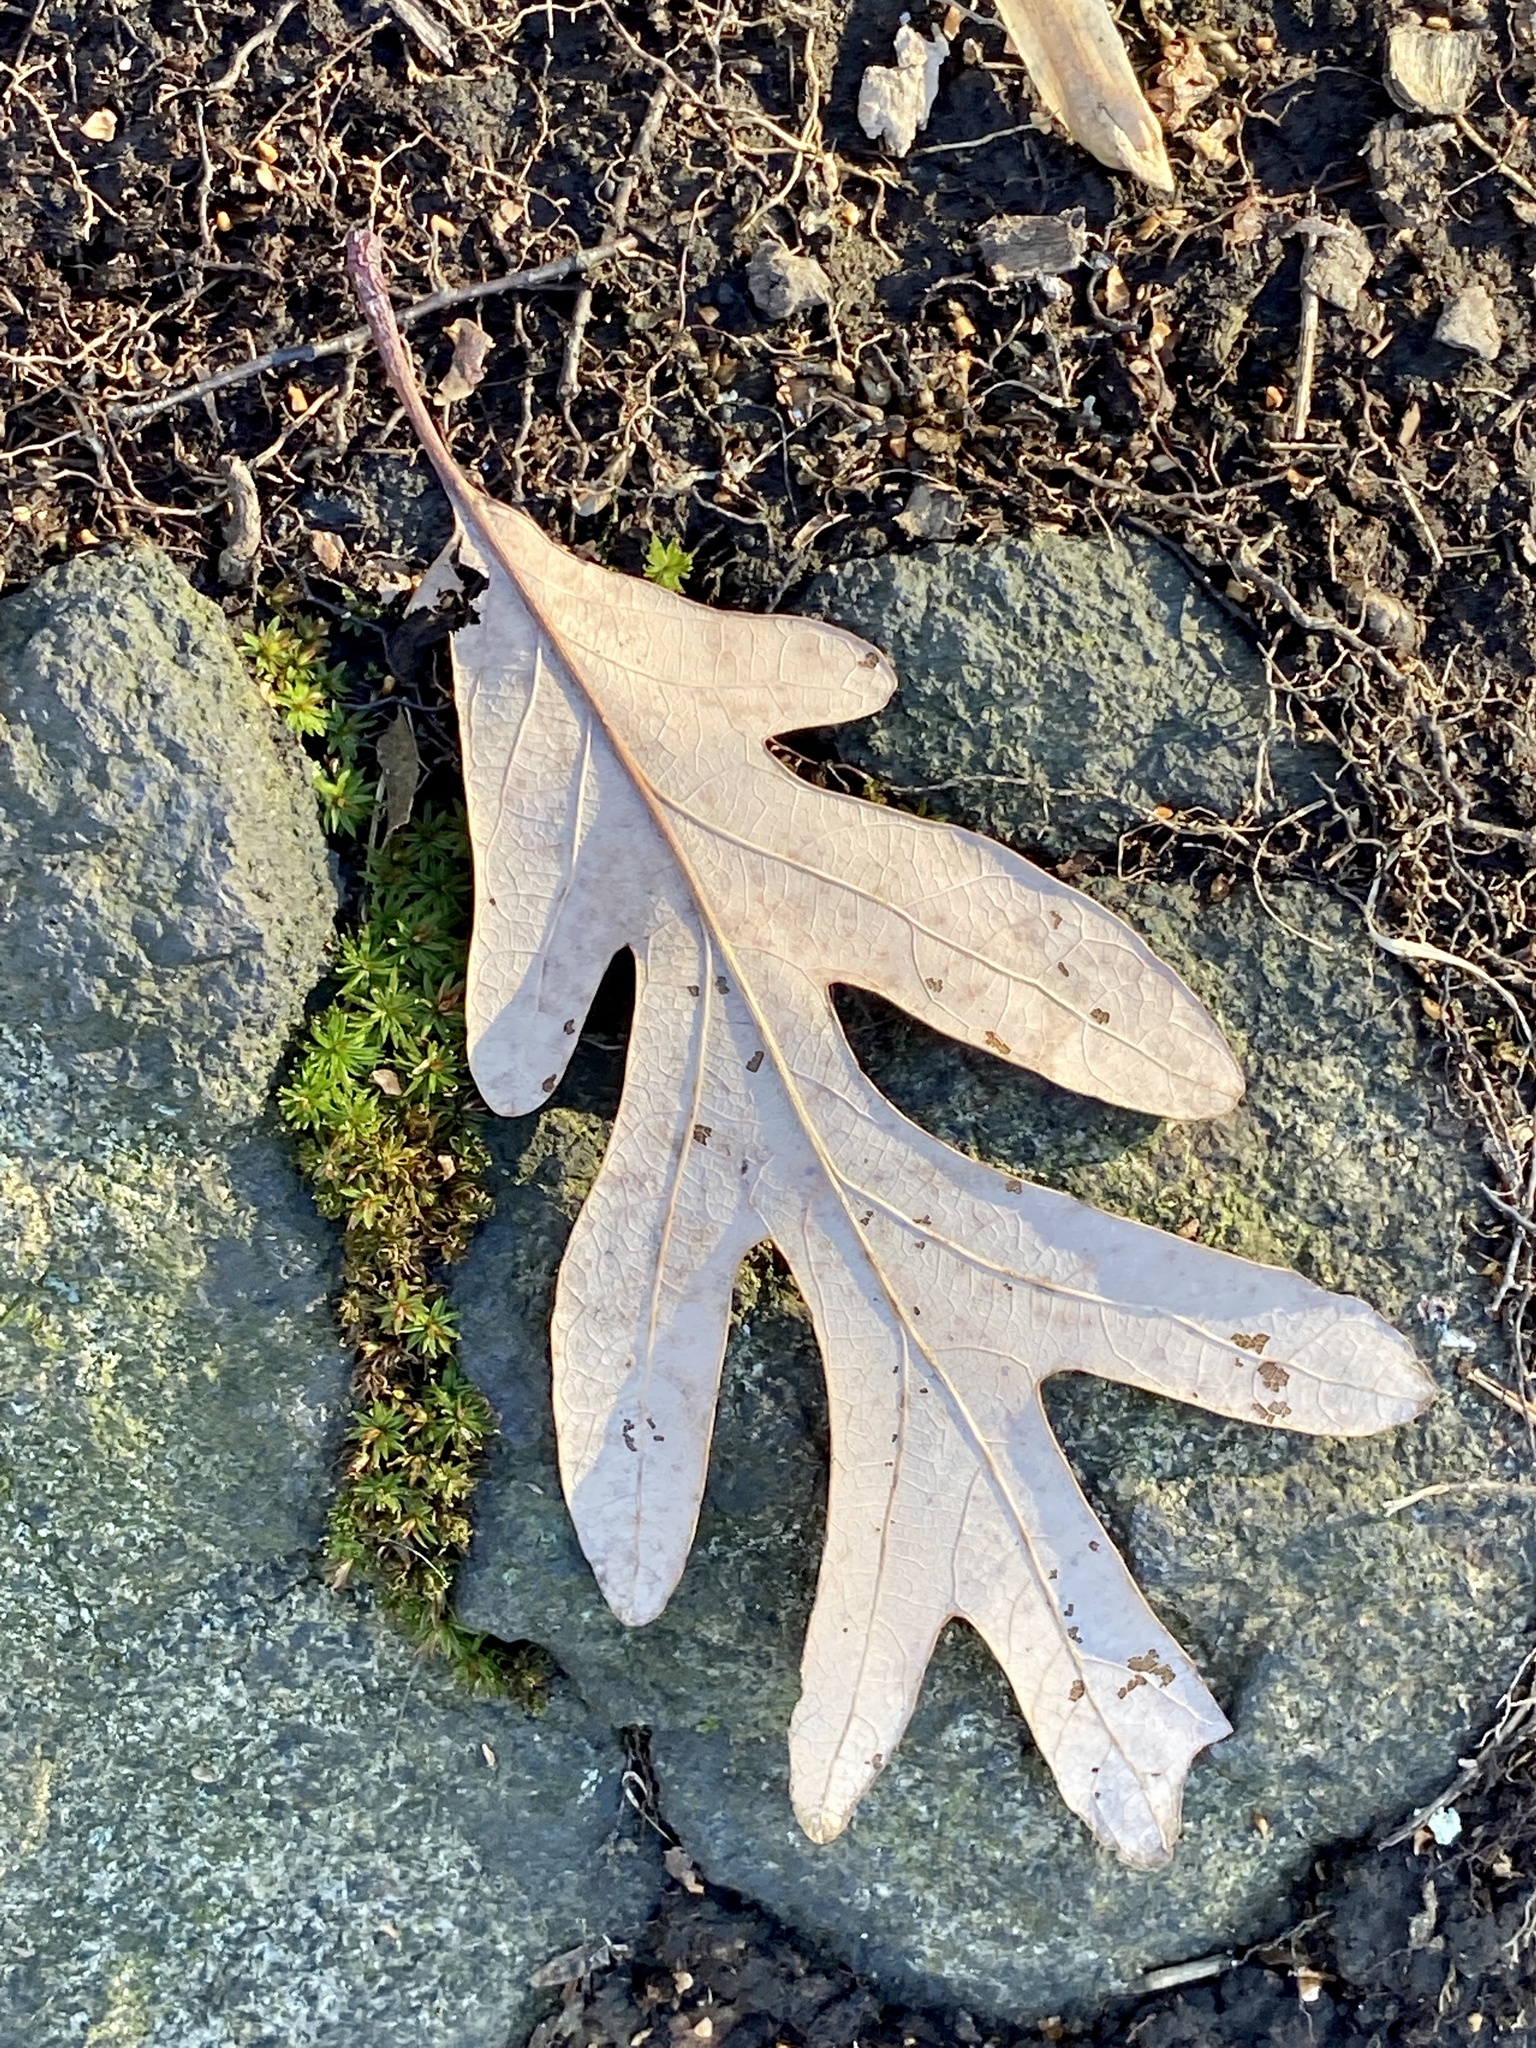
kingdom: Plantae
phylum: Tracheophyta
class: Magnoliopsida
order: Fagales
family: Fagaceae
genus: Quercus
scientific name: Quercus alba
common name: White oak
